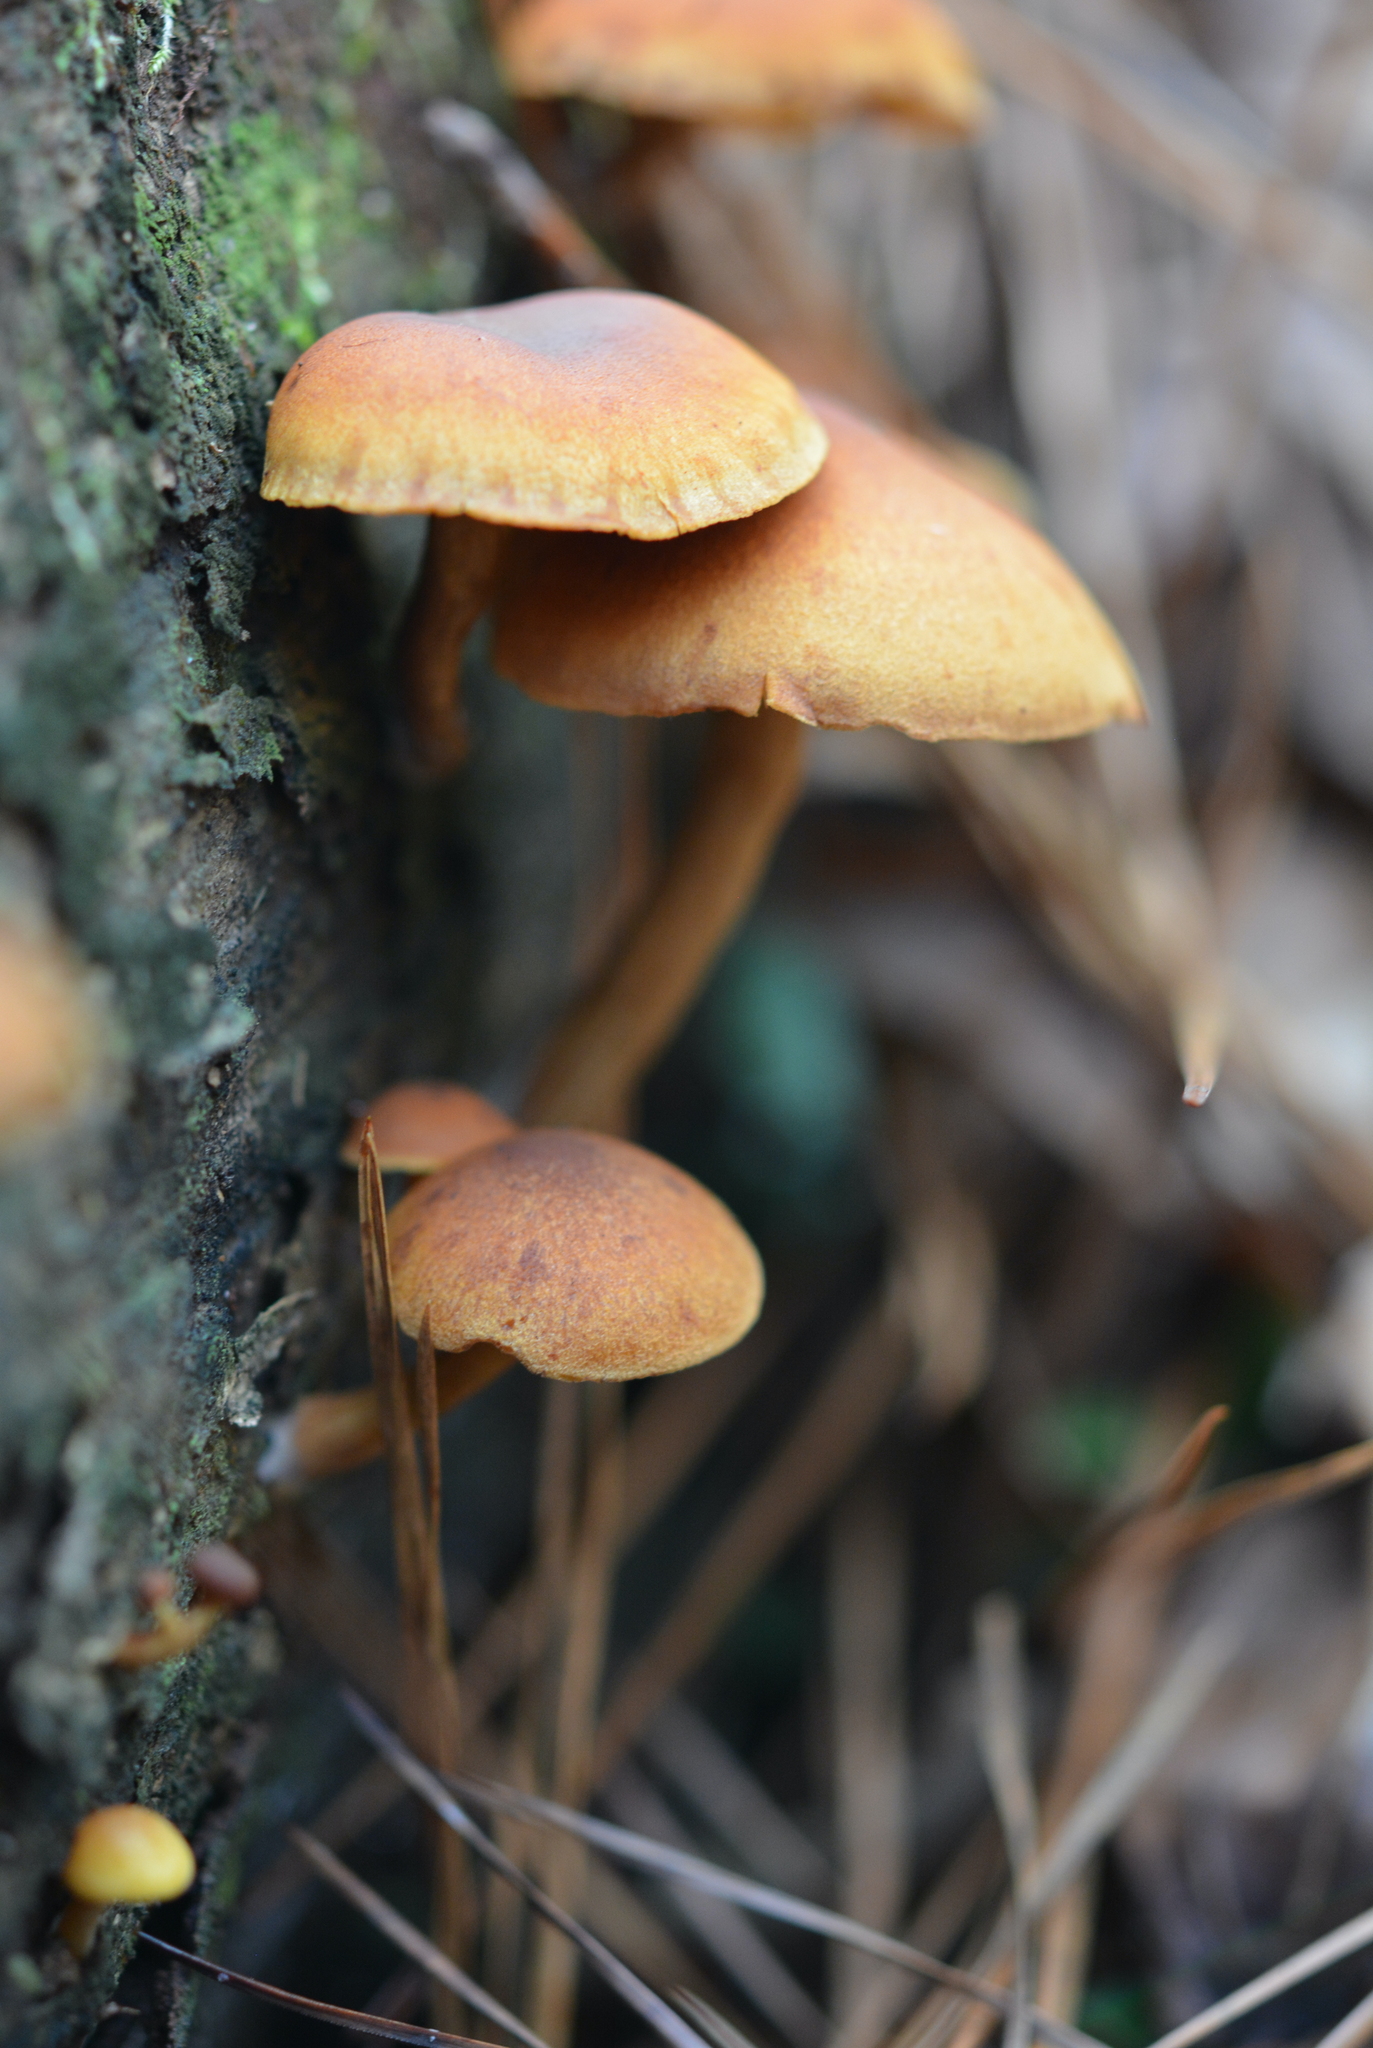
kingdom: Protozoa
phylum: Mycetozoa
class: Myxomycetes
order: Cribrariales
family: Tubiferaceae
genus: Lycogala
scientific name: Lycogala epidendrum
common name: Wolf's milk
